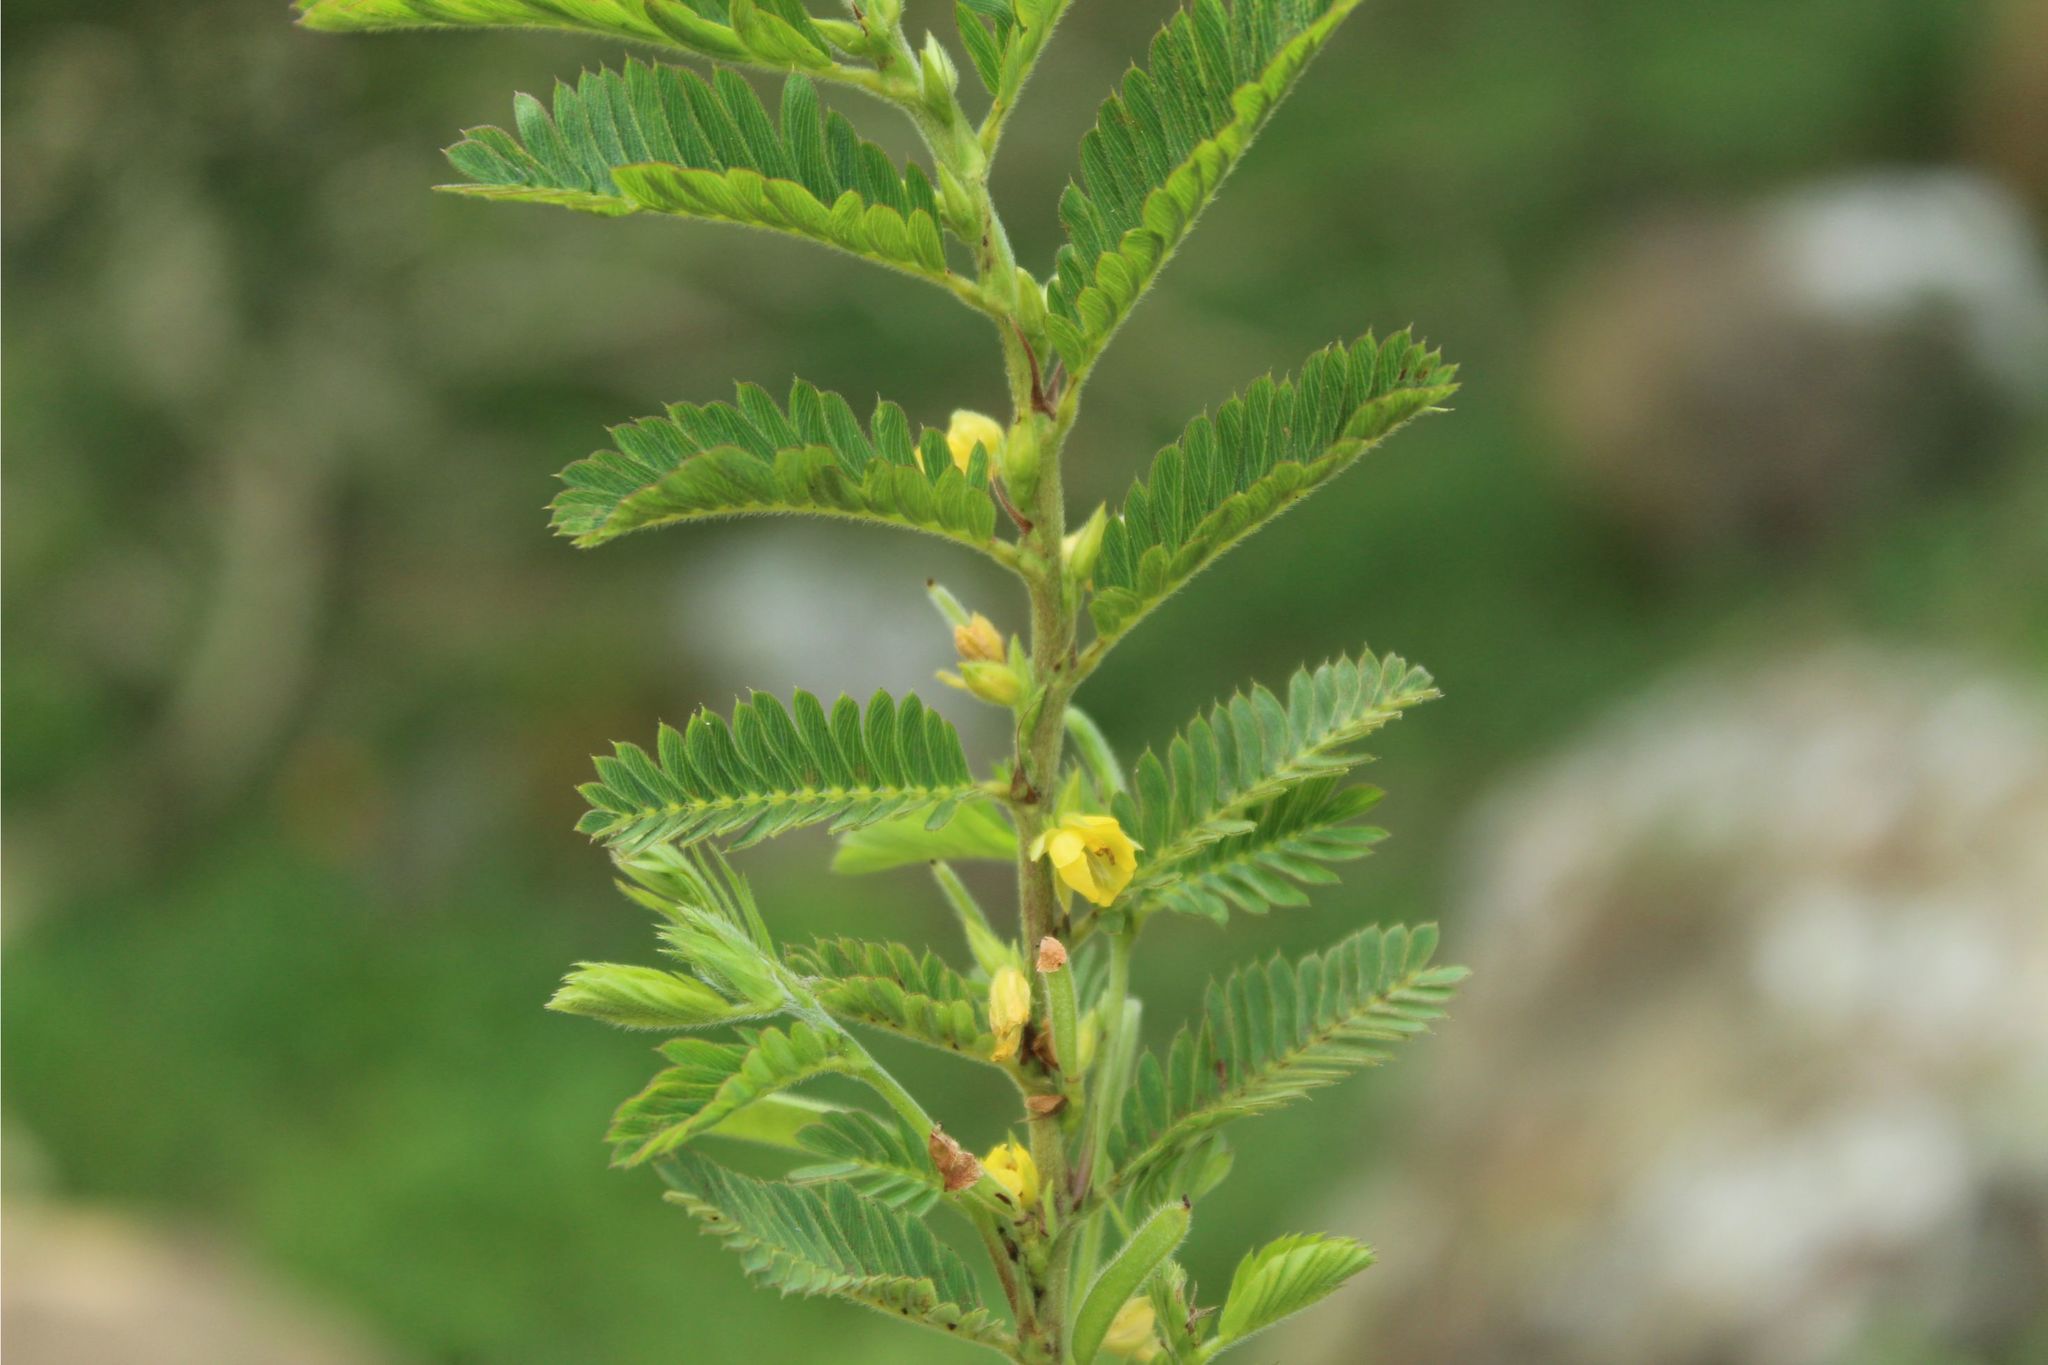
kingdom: Plantae
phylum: Tracheophyta
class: Magnoliopsida
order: Fabales
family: Fabaceae
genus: Chamaecrista
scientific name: Chamaecrista nictitans
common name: Sensitive cassia
